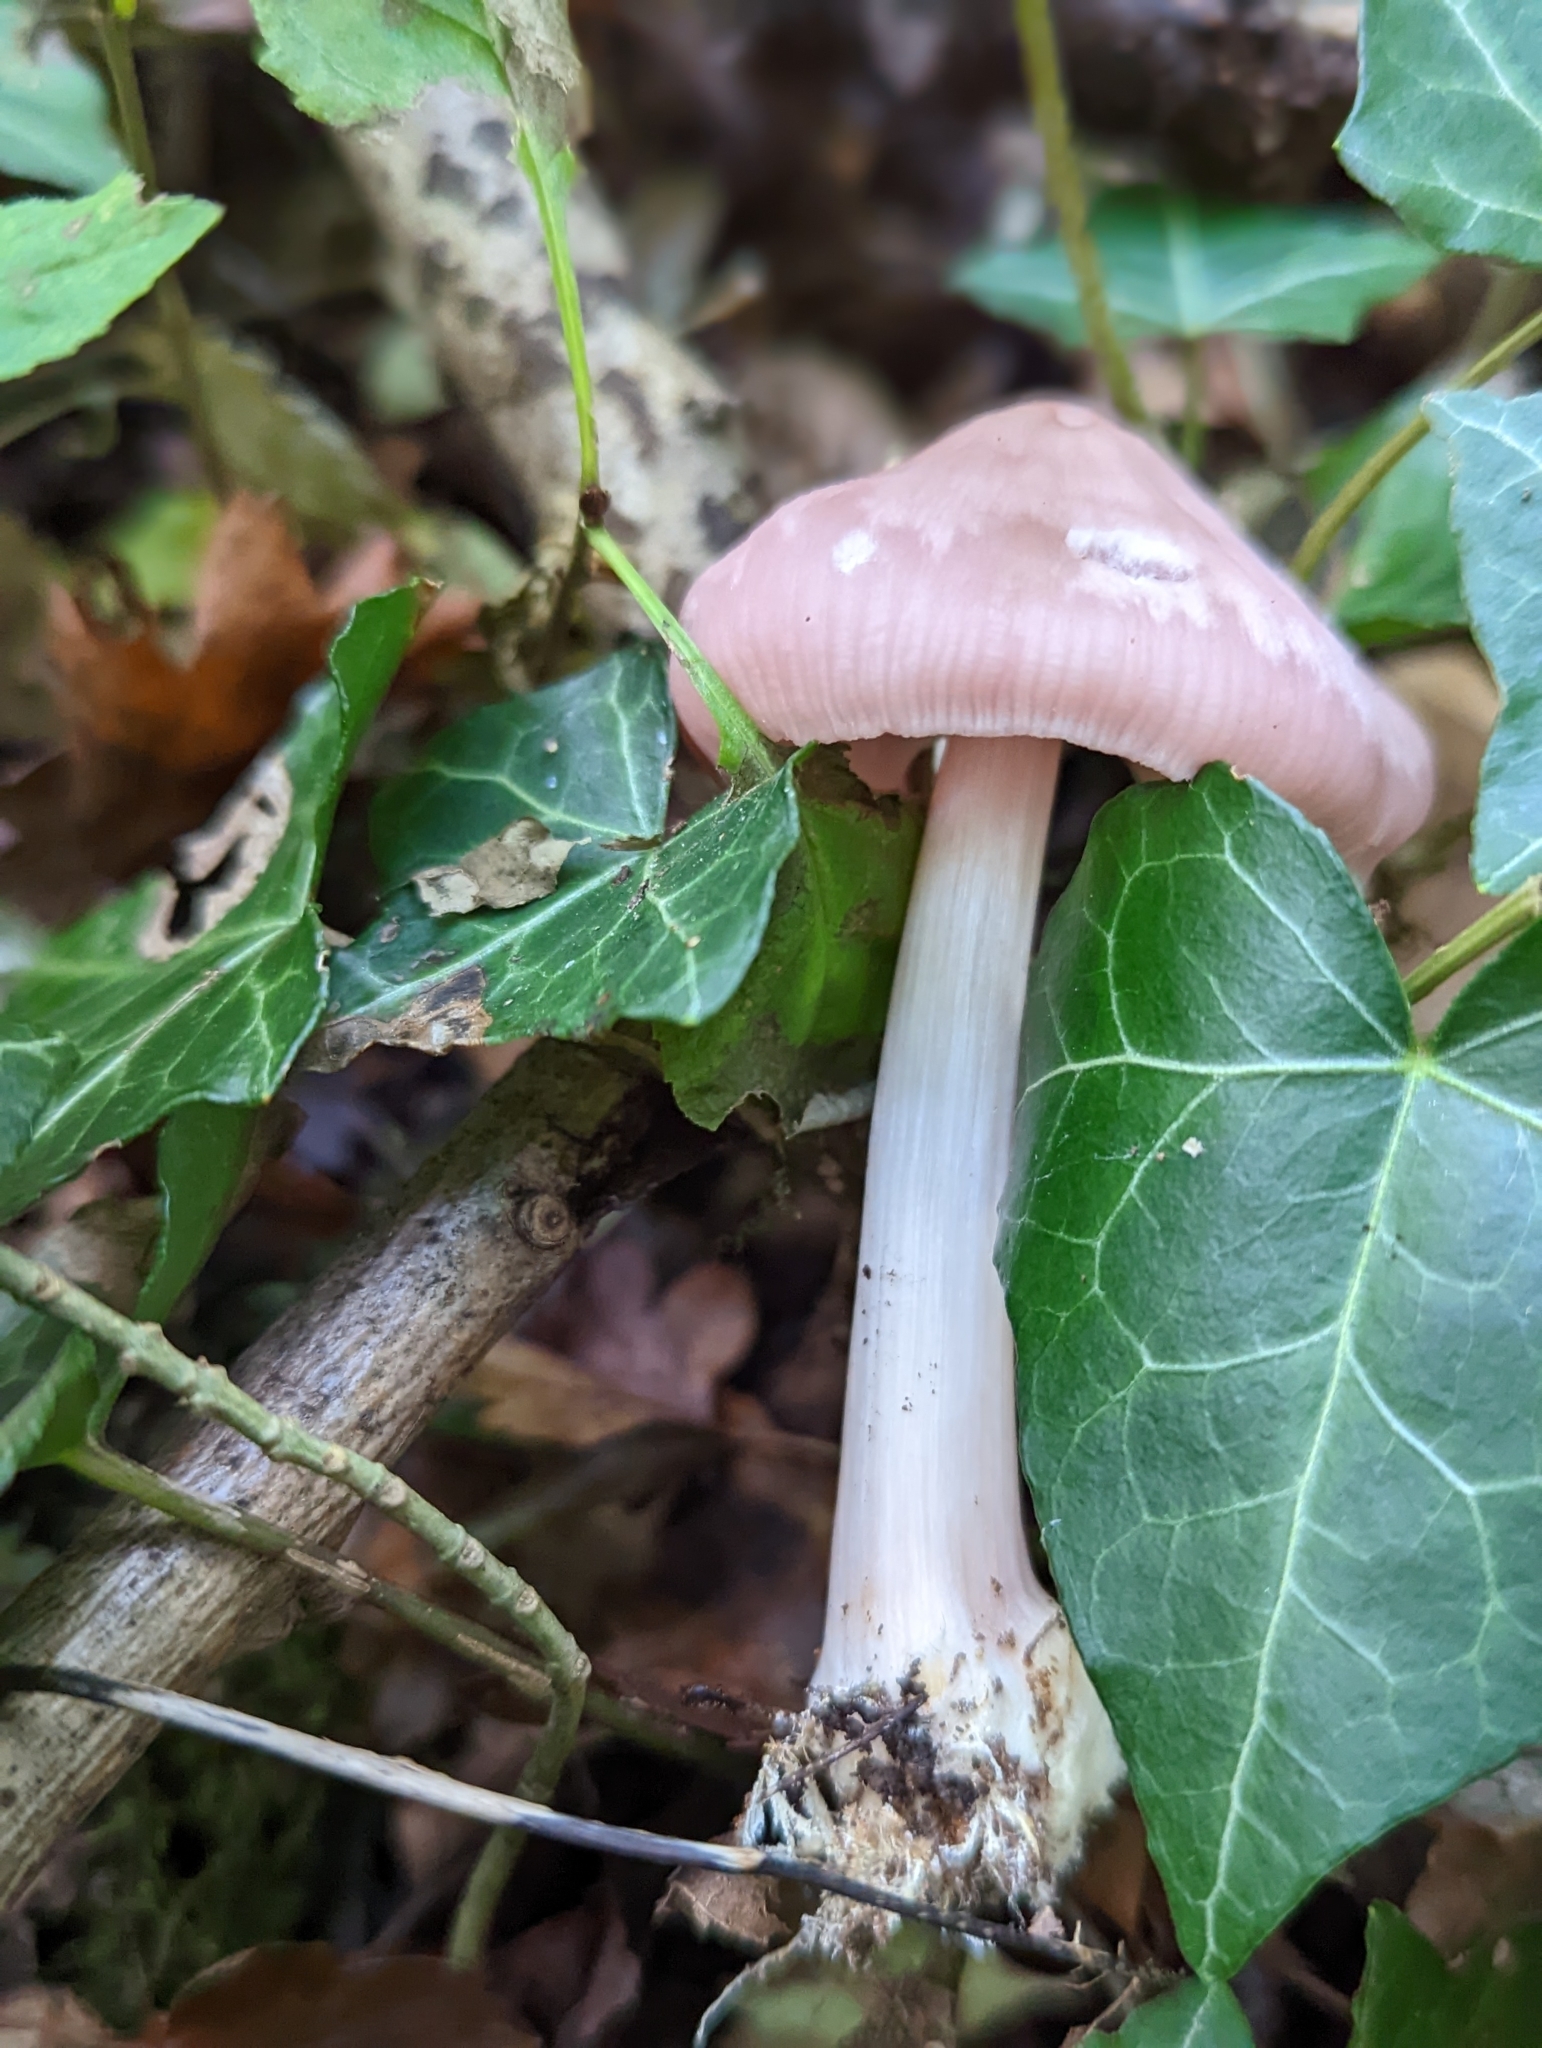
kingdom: Fungi
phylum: Basidiomycota
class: Agaricomycetes
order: Agaricales
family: Mycenaceae
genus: Mycena
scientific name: Mycena rosea
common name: Rosy bonnet
